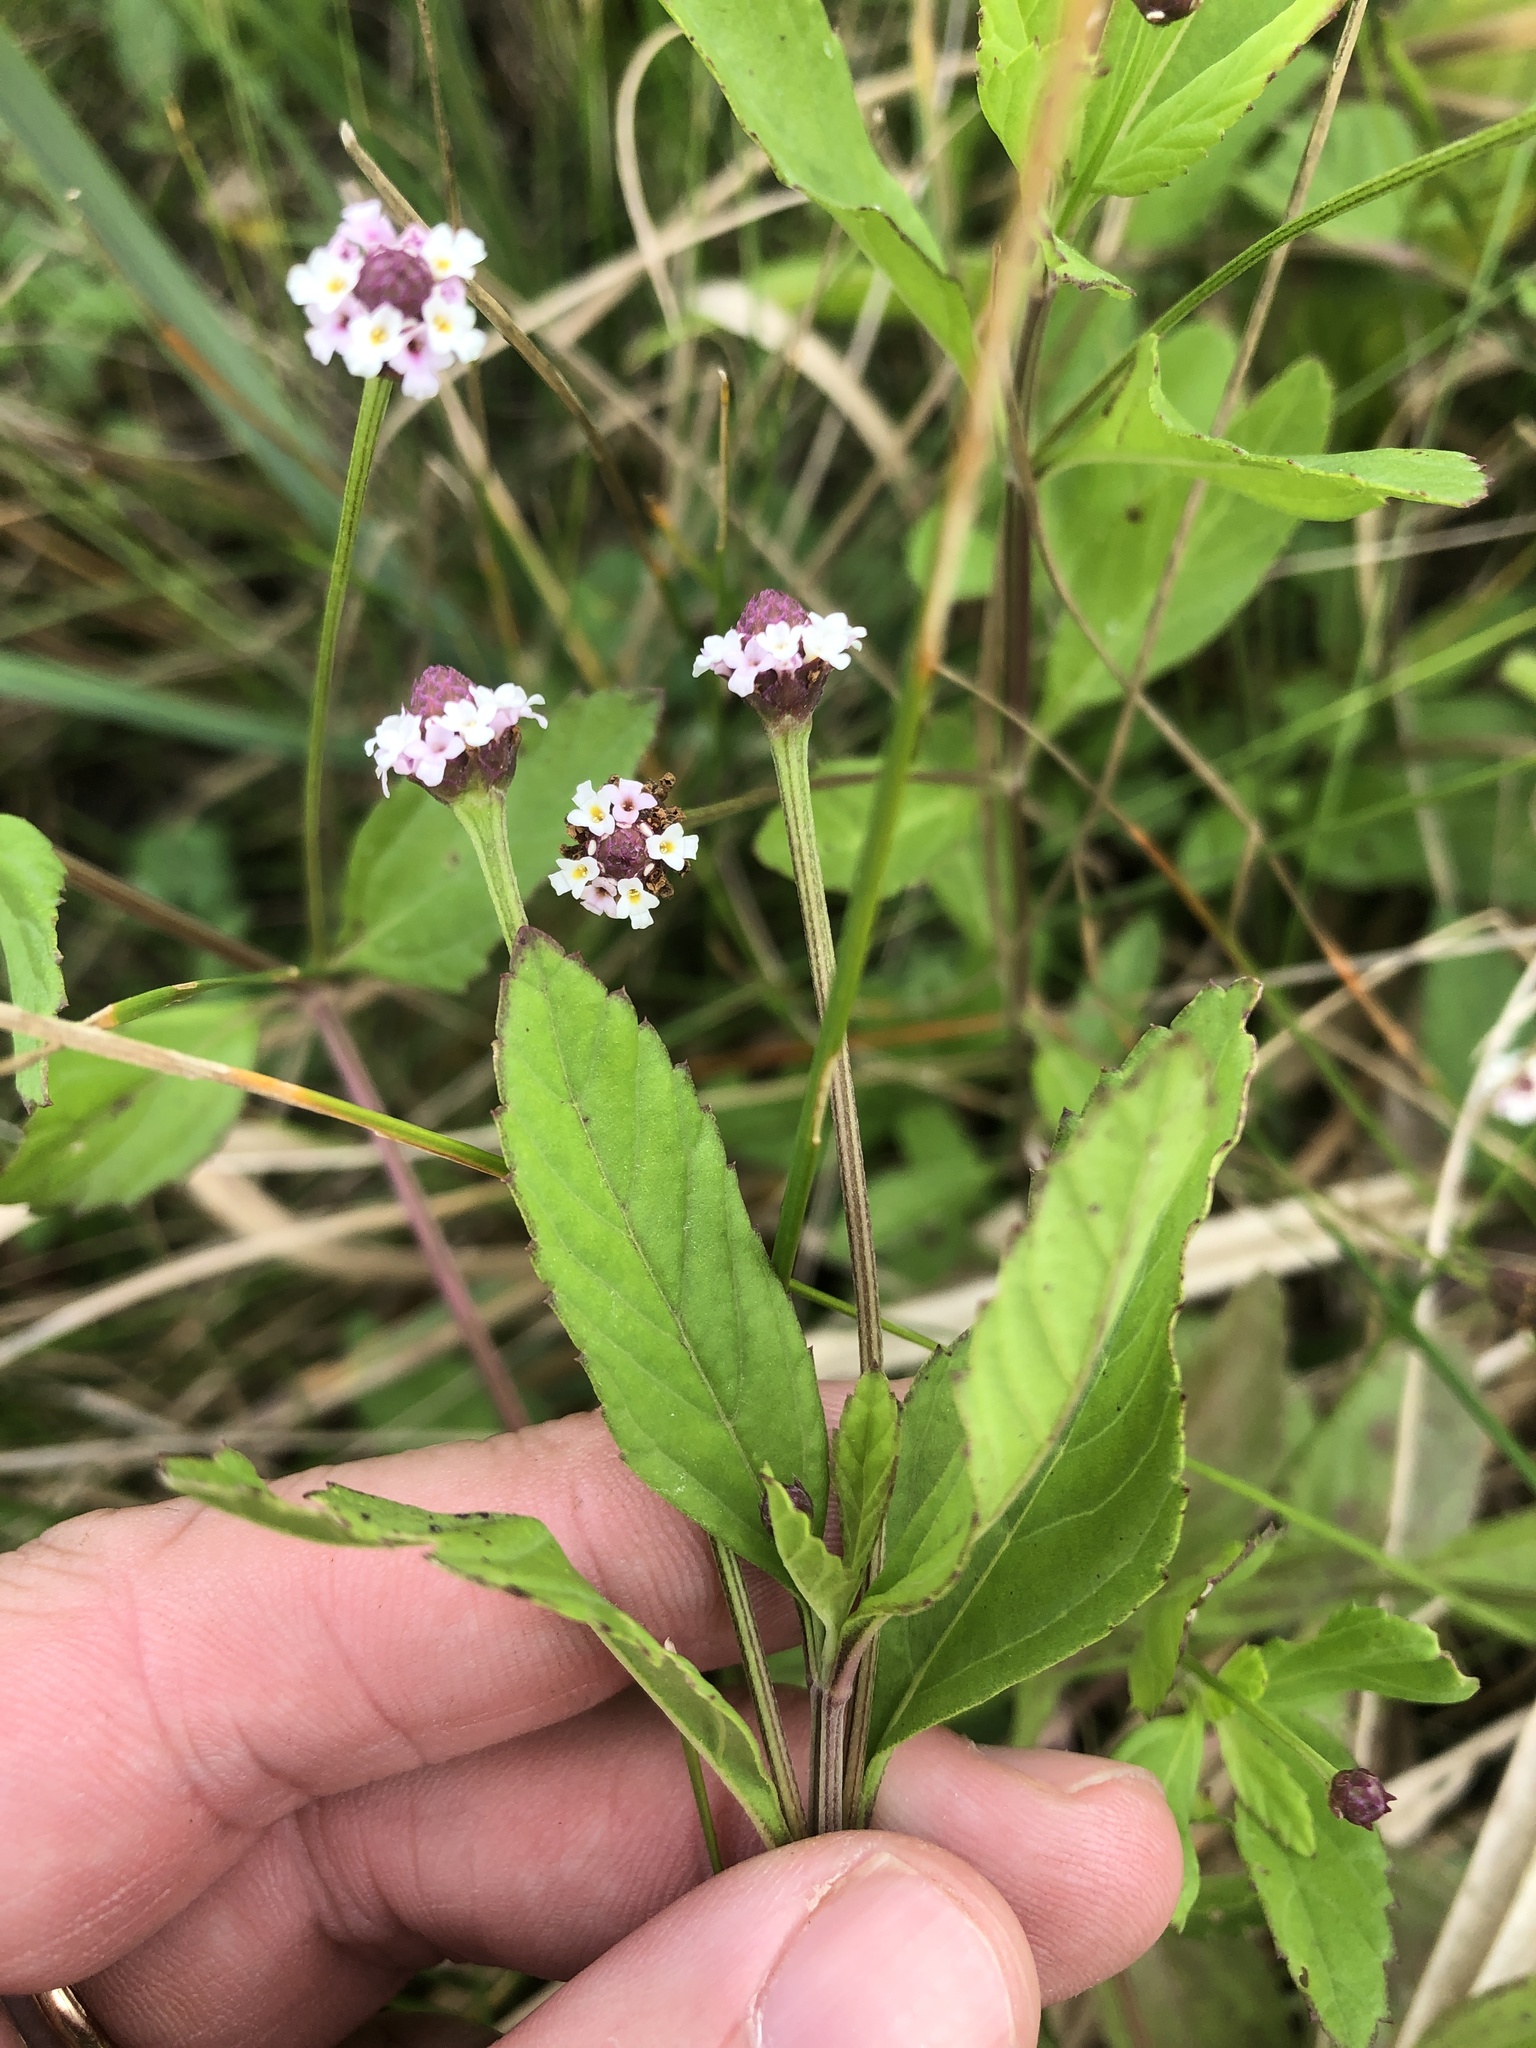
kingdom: Plantae
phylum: Tracheophyta
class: Magnoliopsida
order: Lamiales
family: Verbenaceae
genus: Phyla
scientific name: Phyla lanceolata
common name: Northern fogfruit
